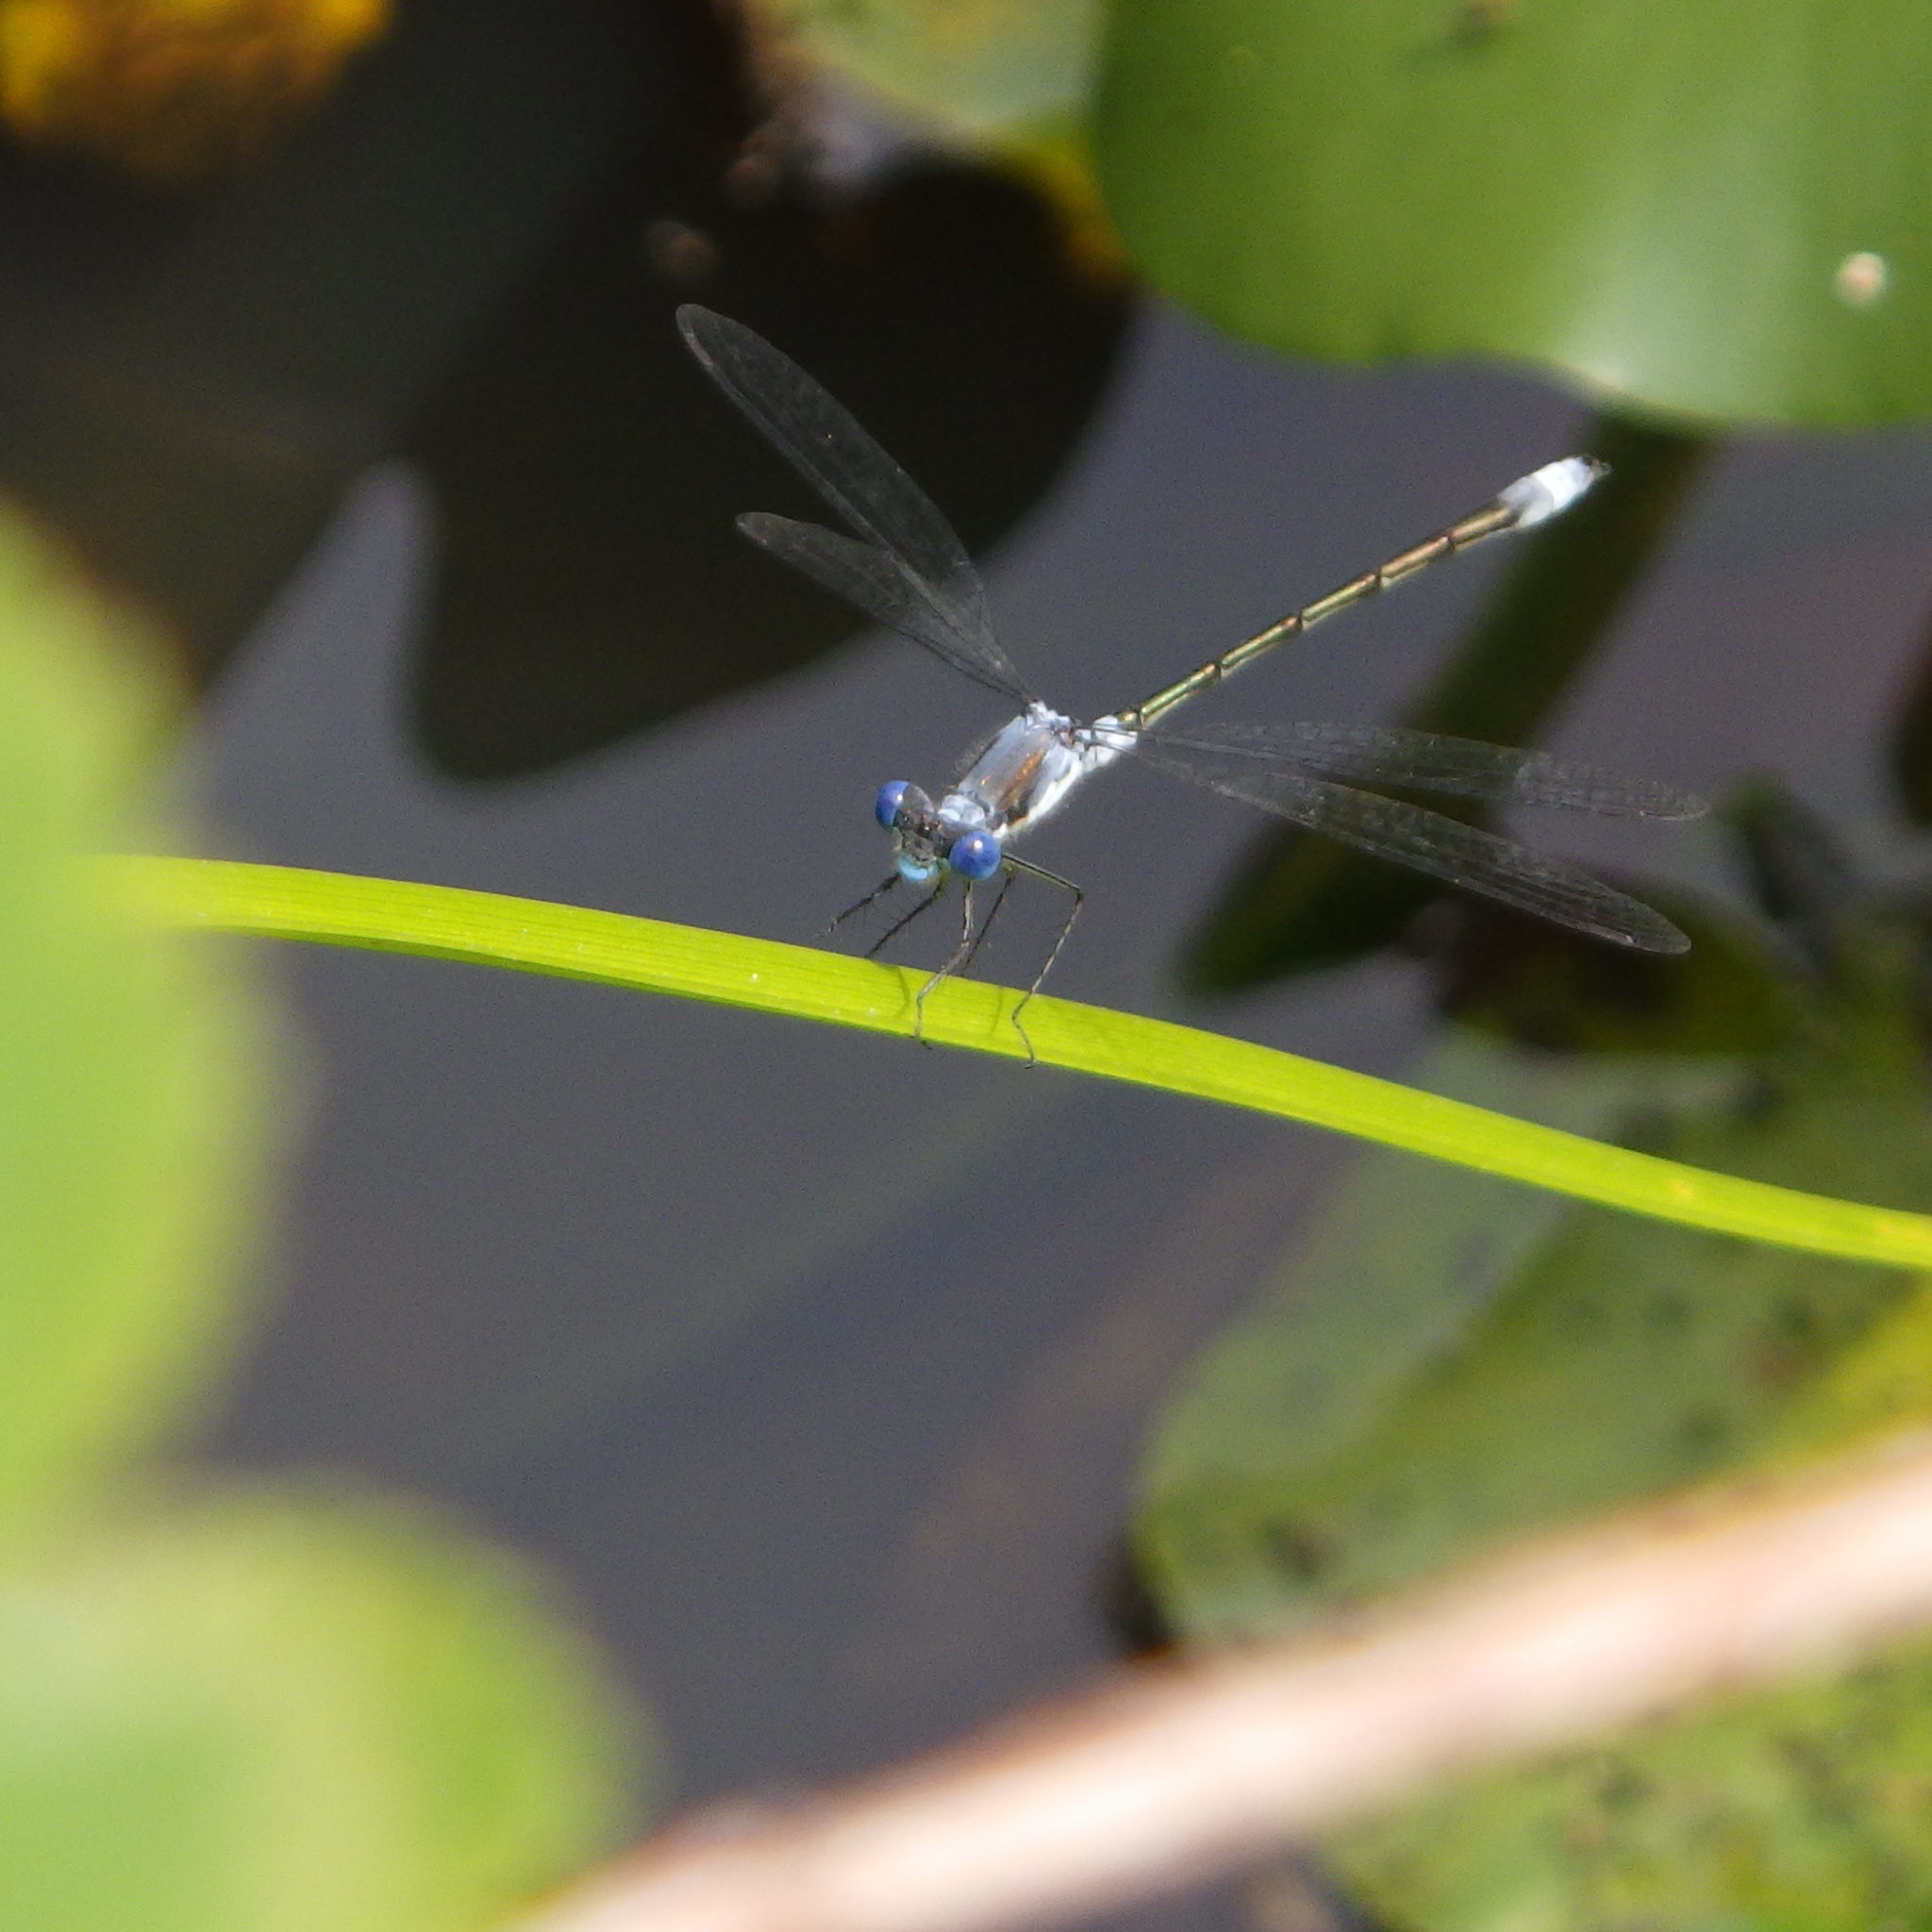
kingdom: Animalia
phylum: Arthropoda
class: Insecta
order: Odonata
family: Lestidae
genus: Lestes
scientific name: Lestes forcipatus
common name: Sweetflag spreadwing
